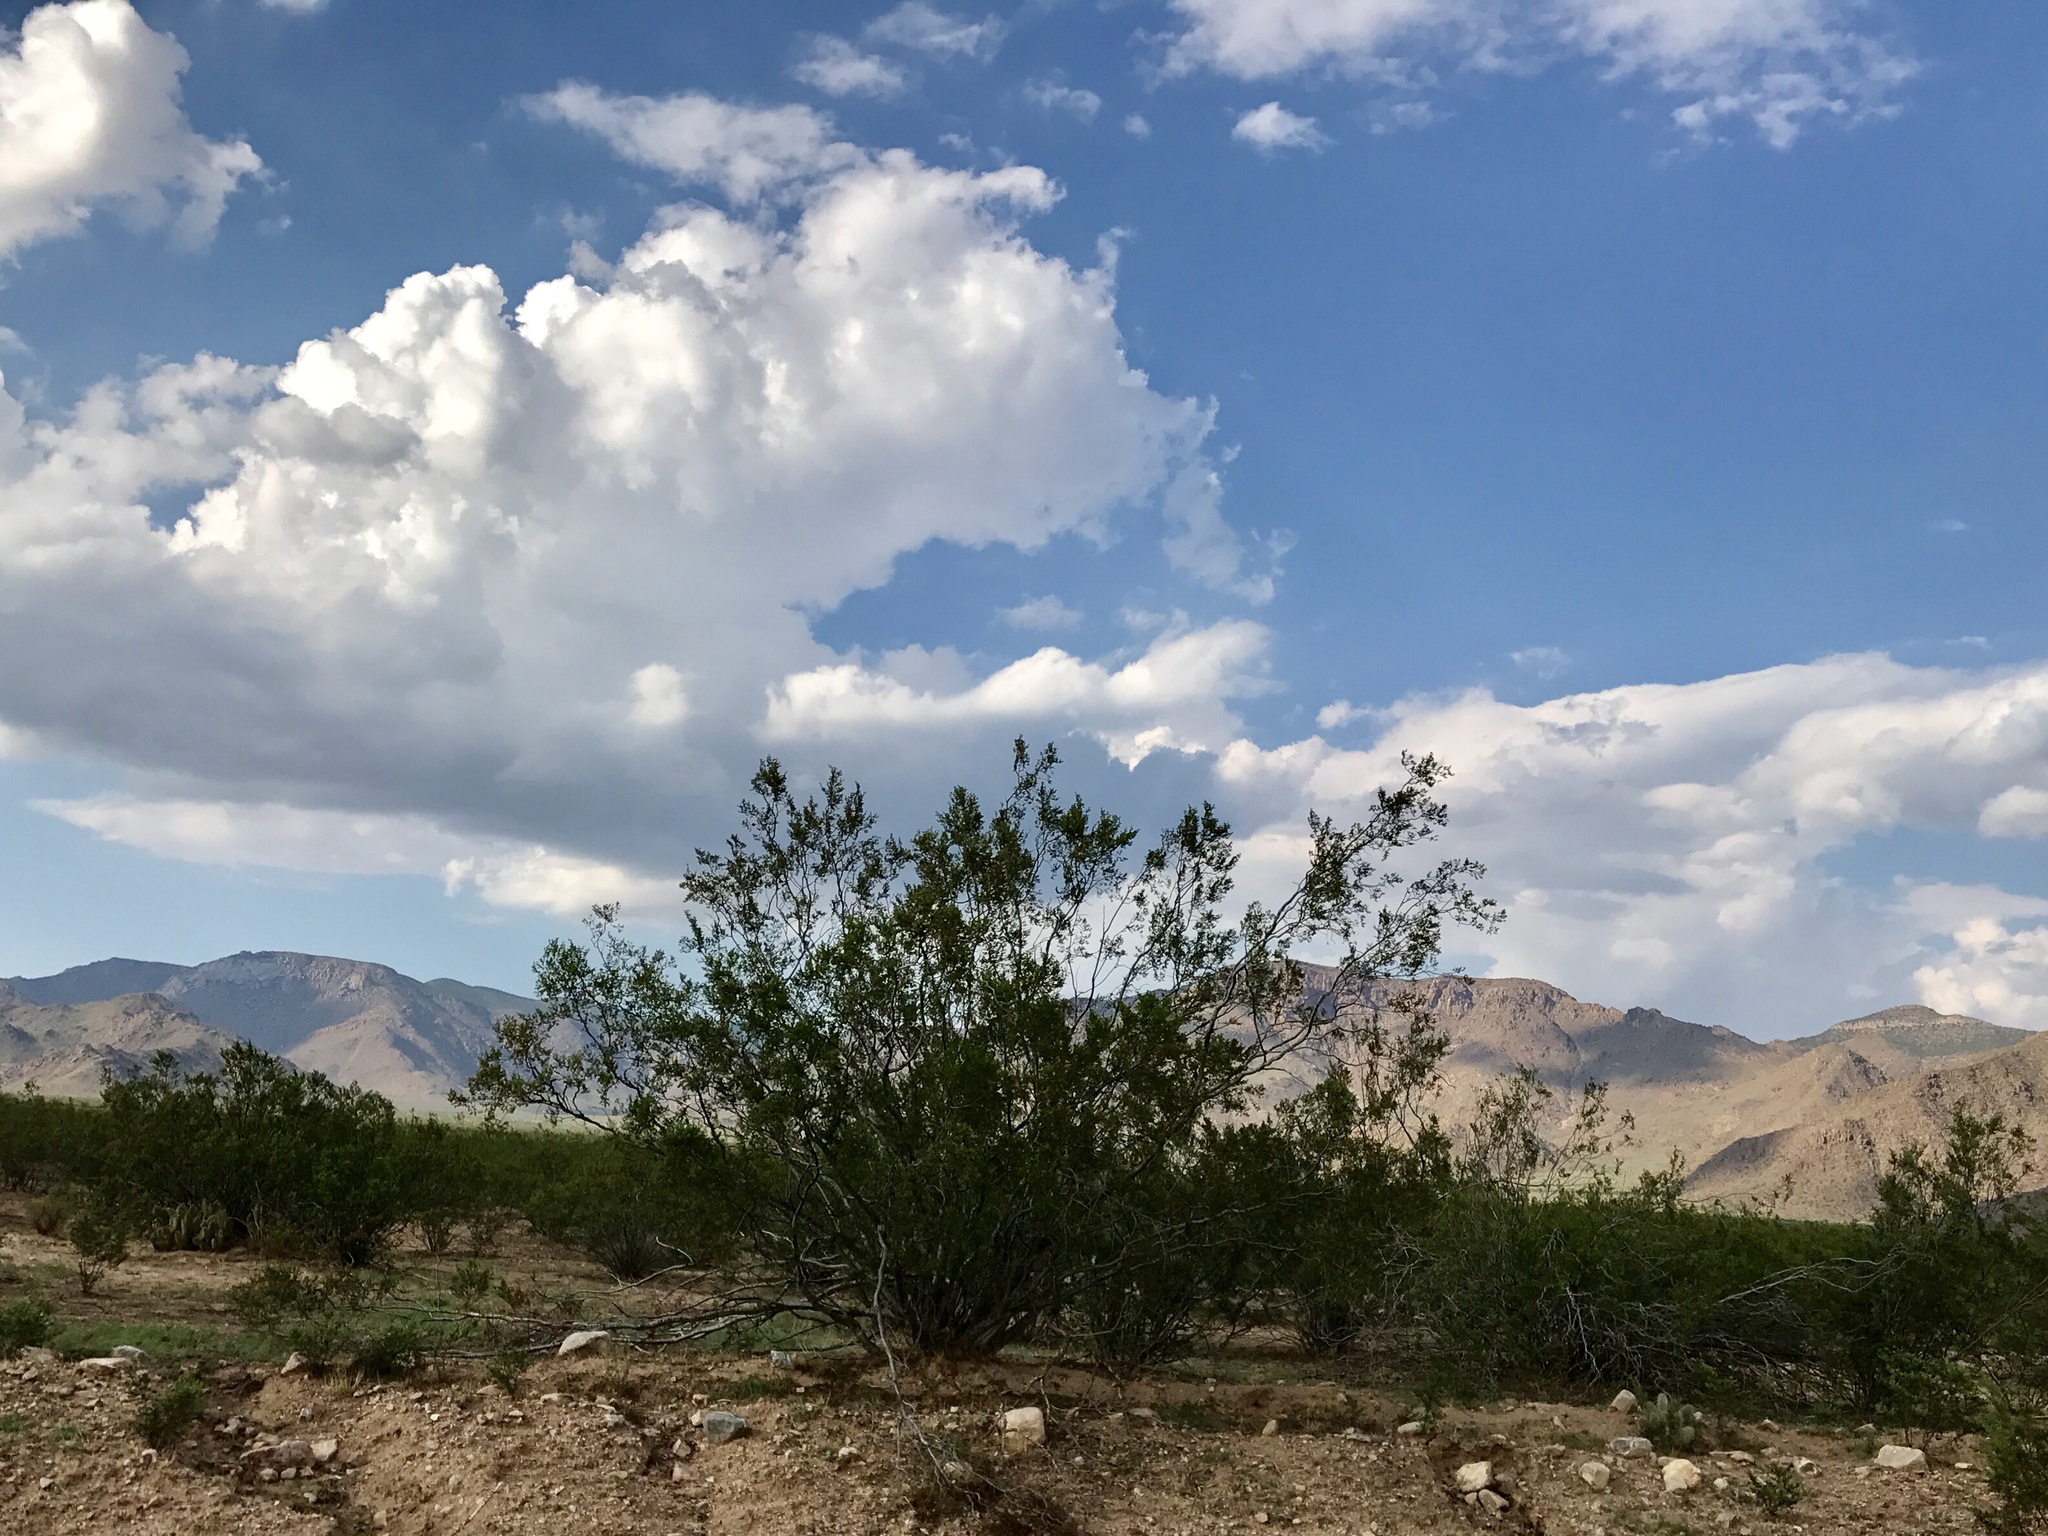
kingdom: Plantae
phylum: Tracheophyta
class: Magnoliopsida
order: Zygophyllales
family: Zygophyllaceae
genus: Larrea
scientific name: Larrea tridentata
